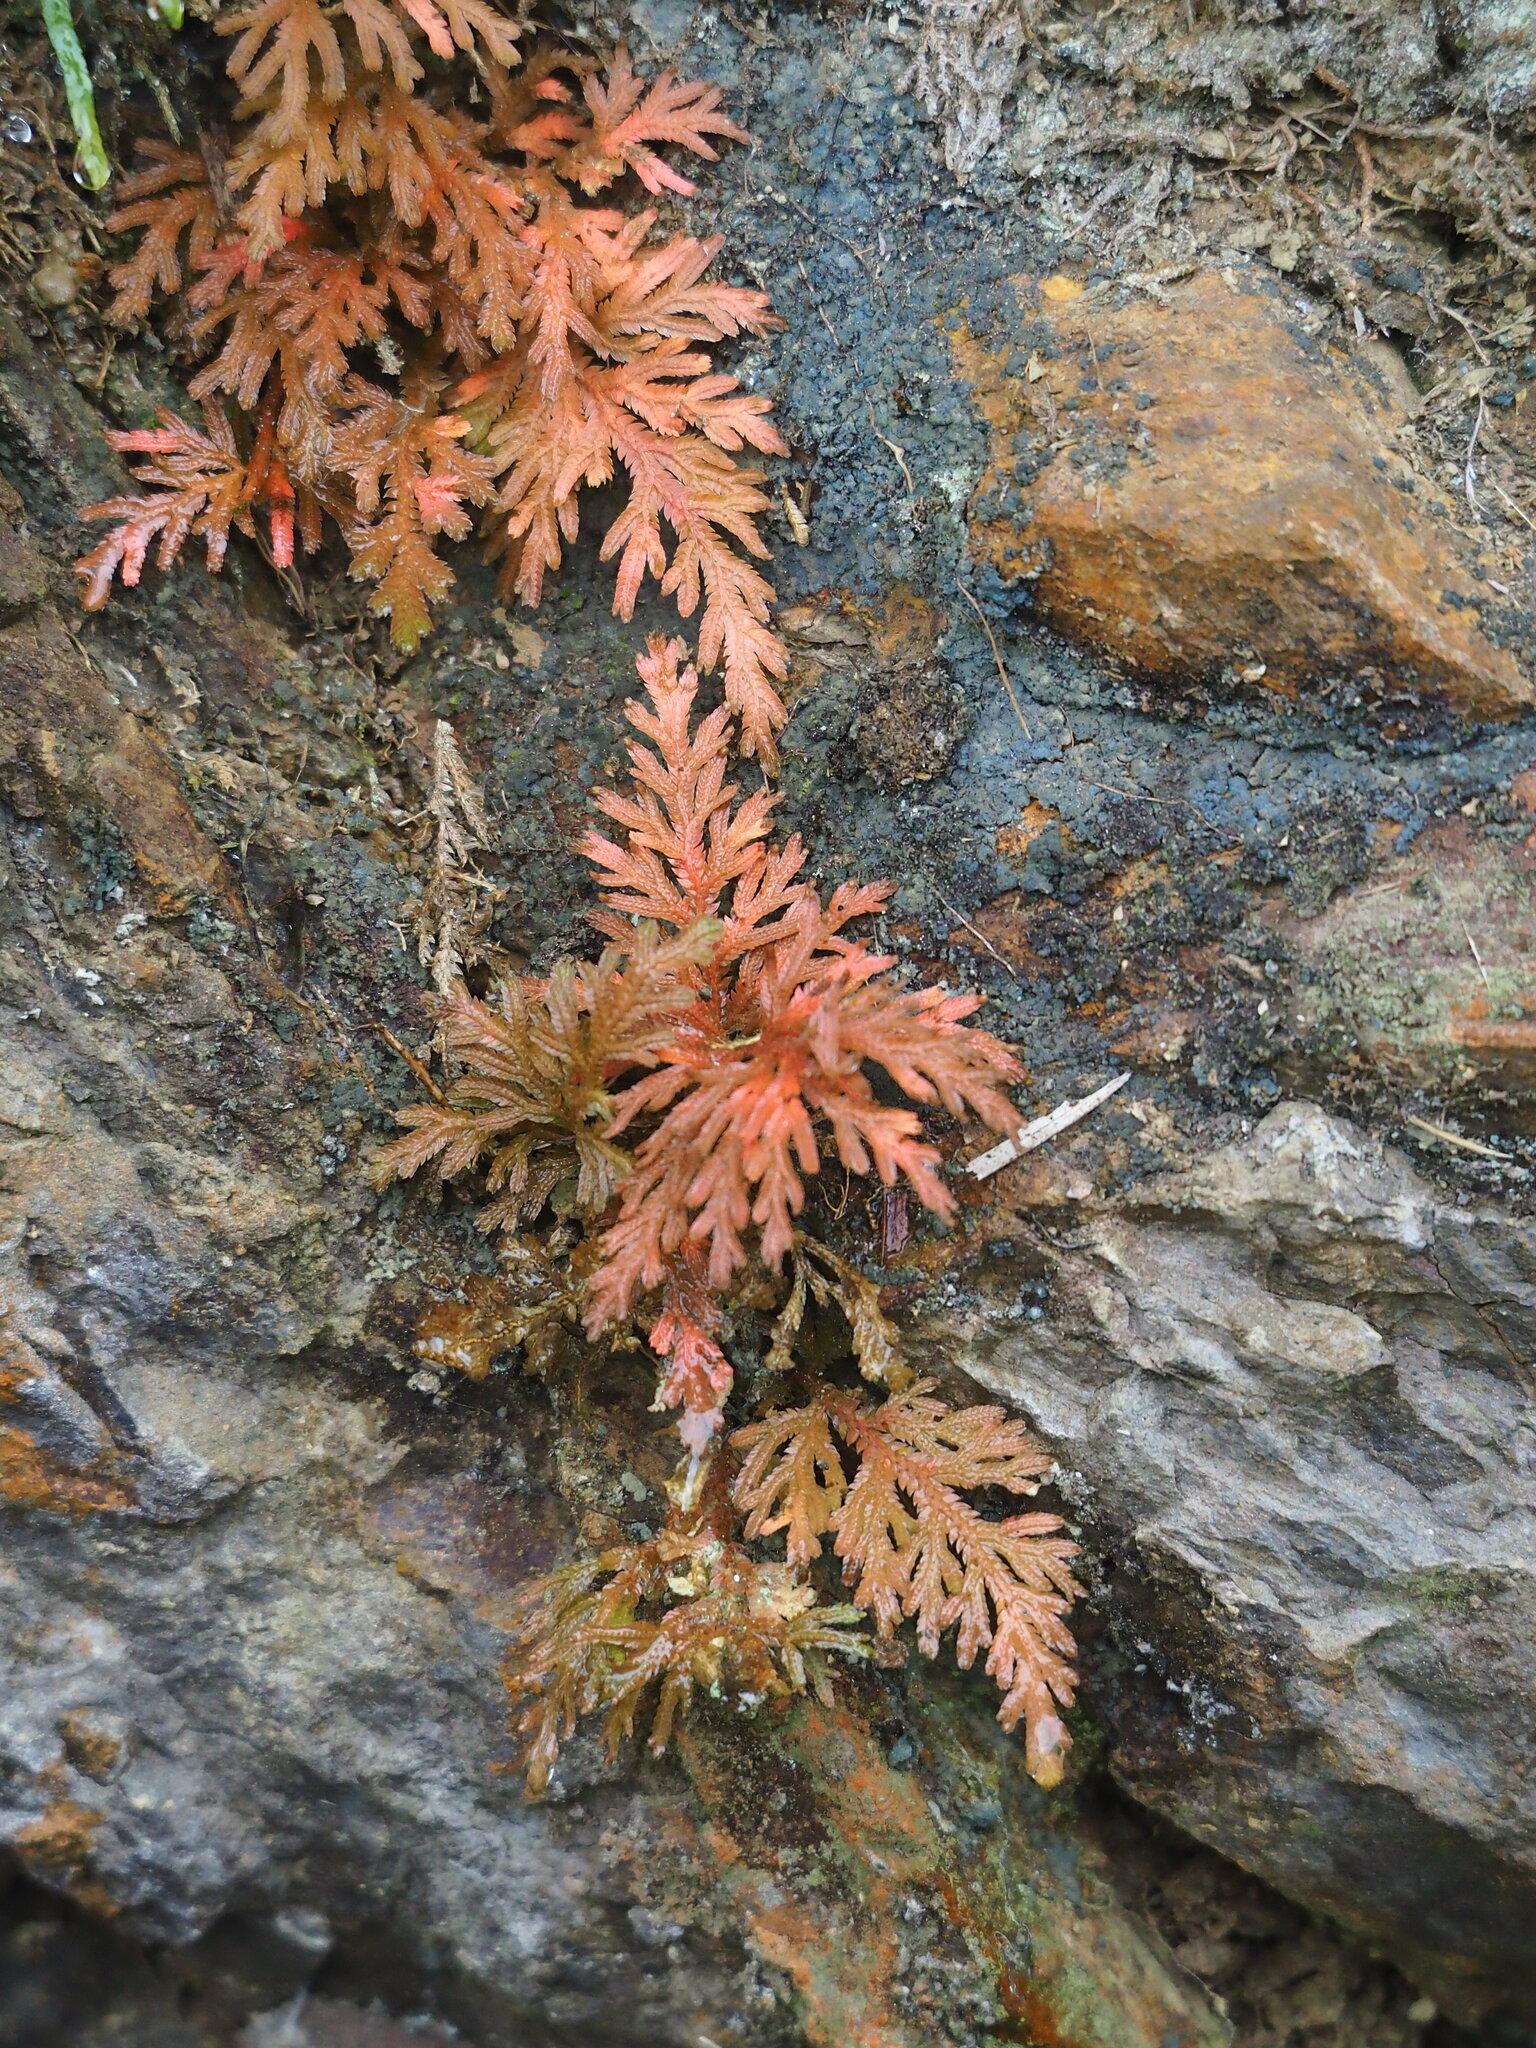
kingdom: Plantae
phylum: Tracheophyta
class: Lycopodiopsida
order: Selaginellales
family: Selaginellaceae
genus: Selaginella
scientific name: Selaginella moellendorffii
